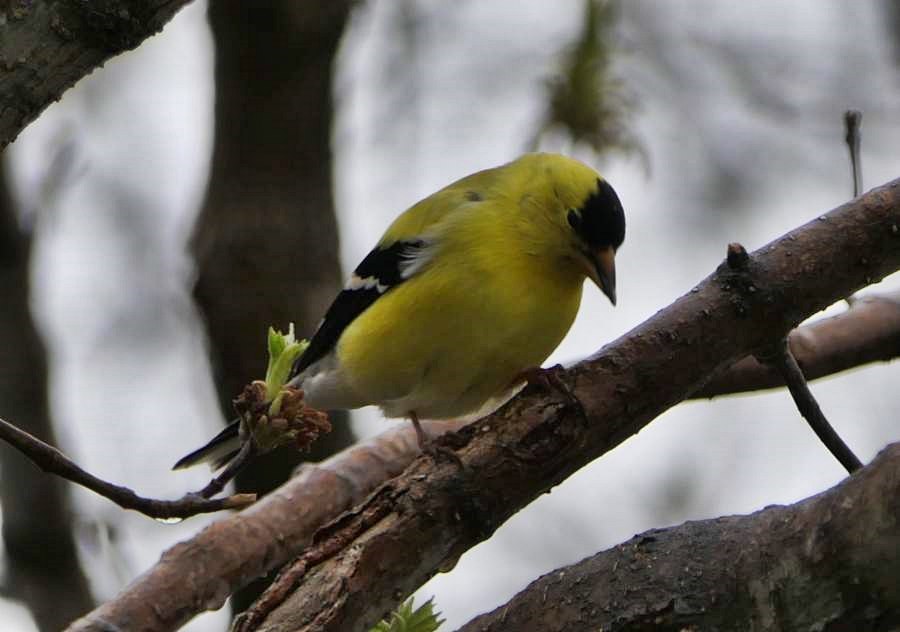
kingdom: Animalia
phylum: Chordata
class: Aves
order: Passeriformes
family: Fringillidae
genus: Spinus
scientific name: Spinus tristis
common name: American goldfinch
